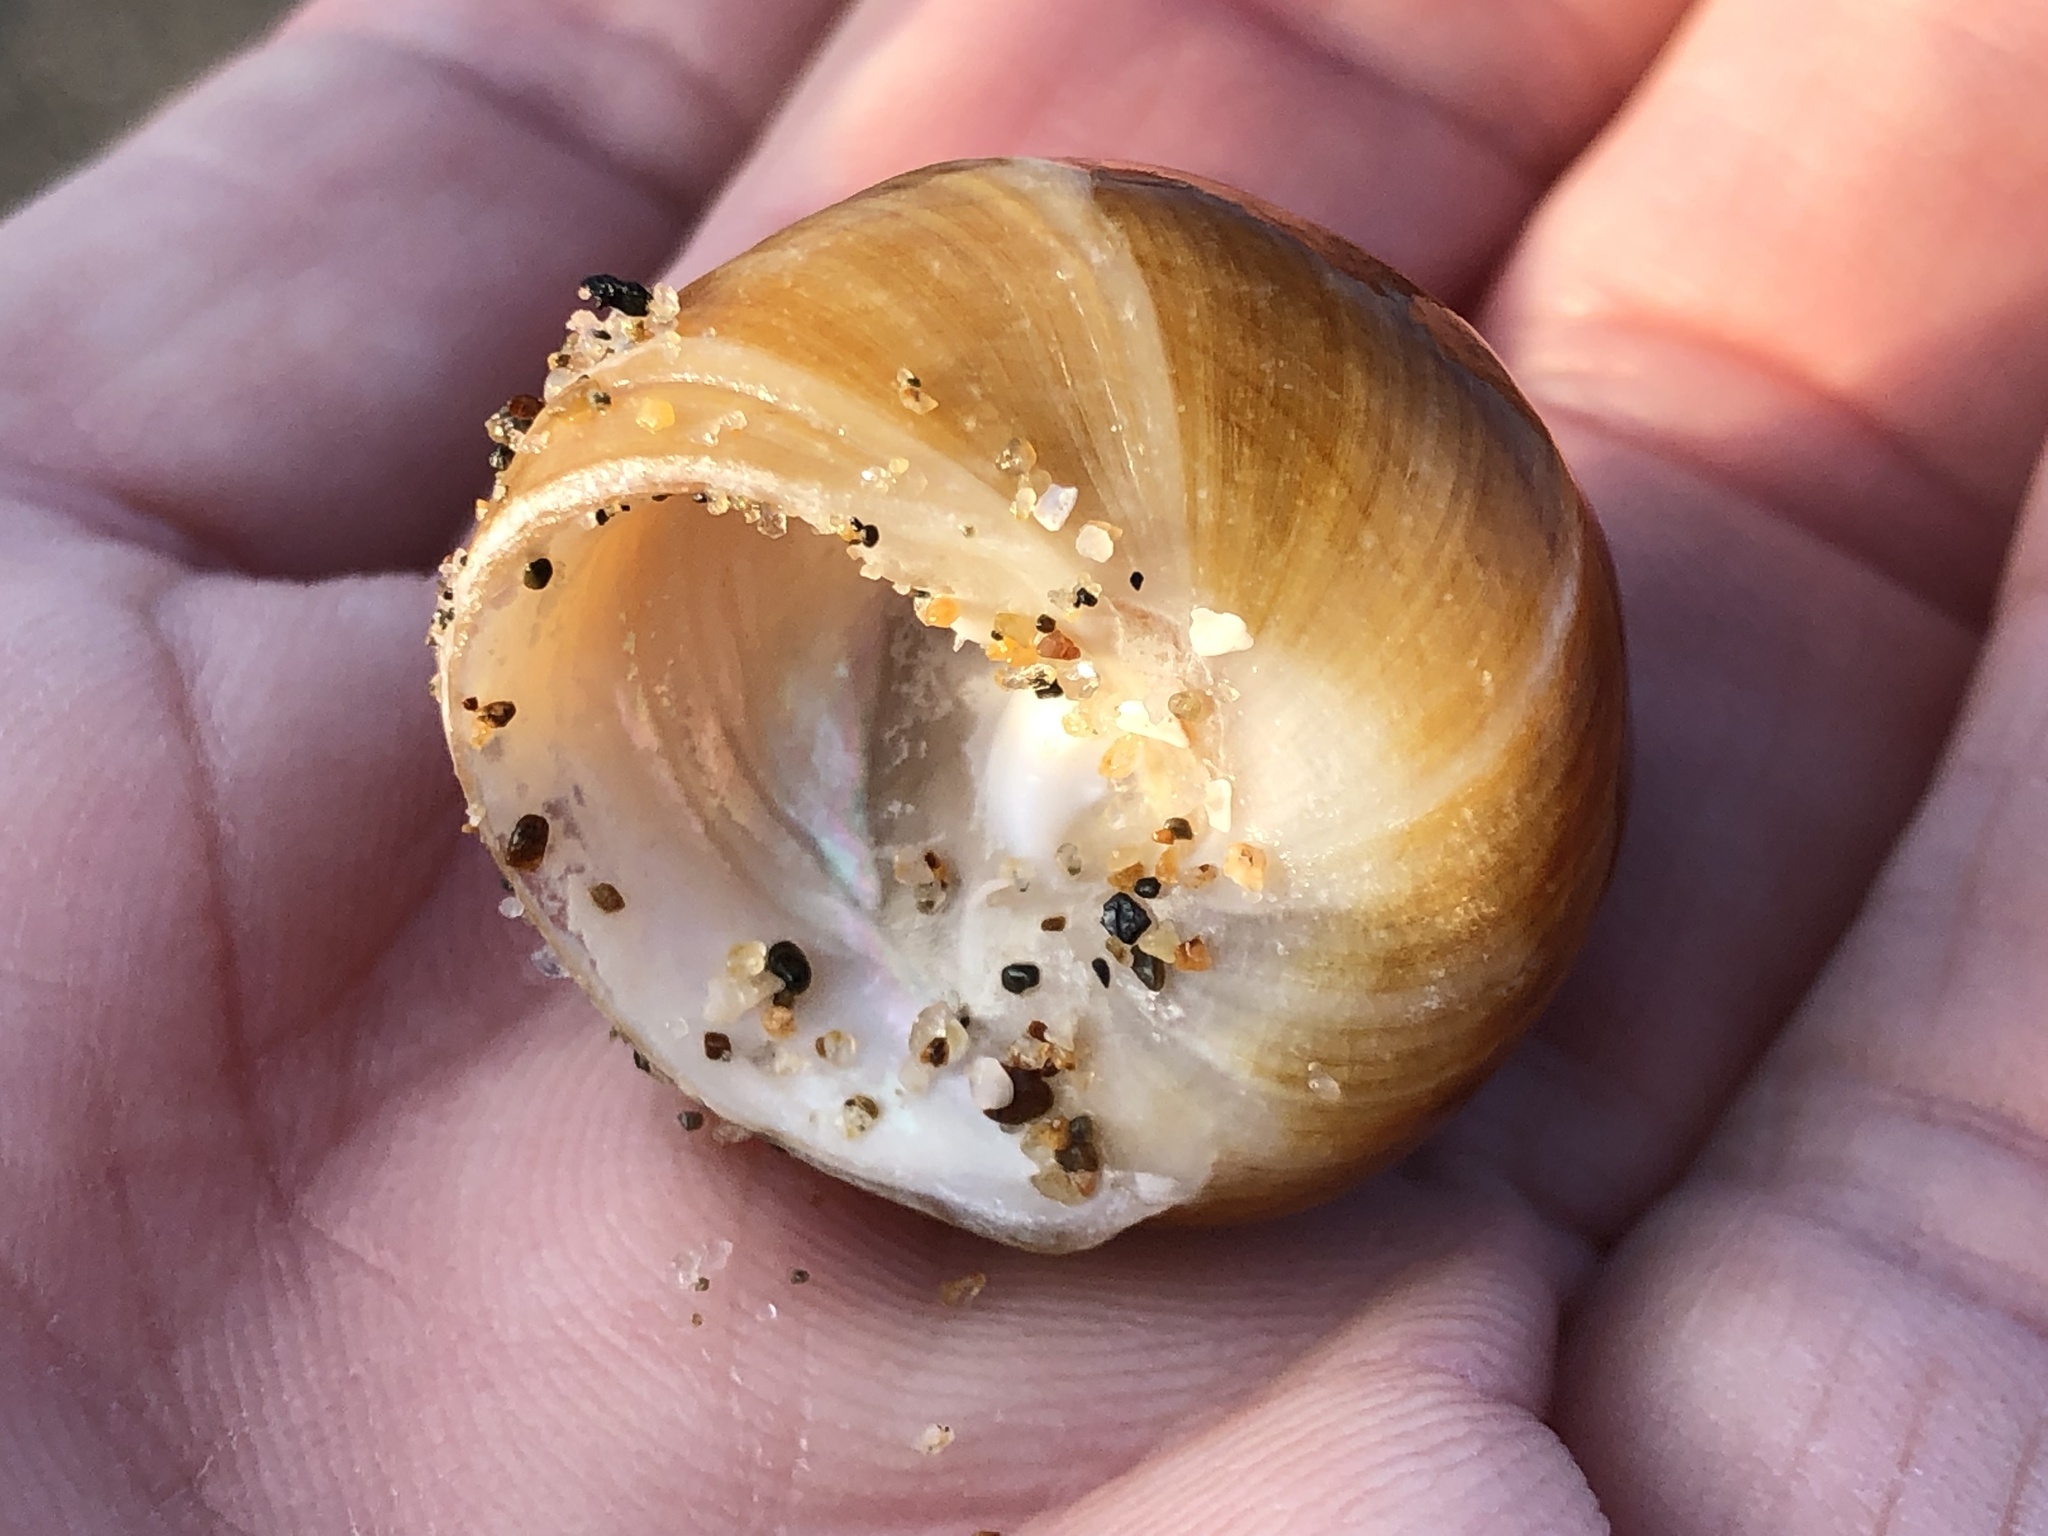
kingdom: Animalia
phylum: Mollusca
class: Gastropoda
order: Trochida
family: Tegulidae
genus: Tegula
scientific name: Tegula brunnea
